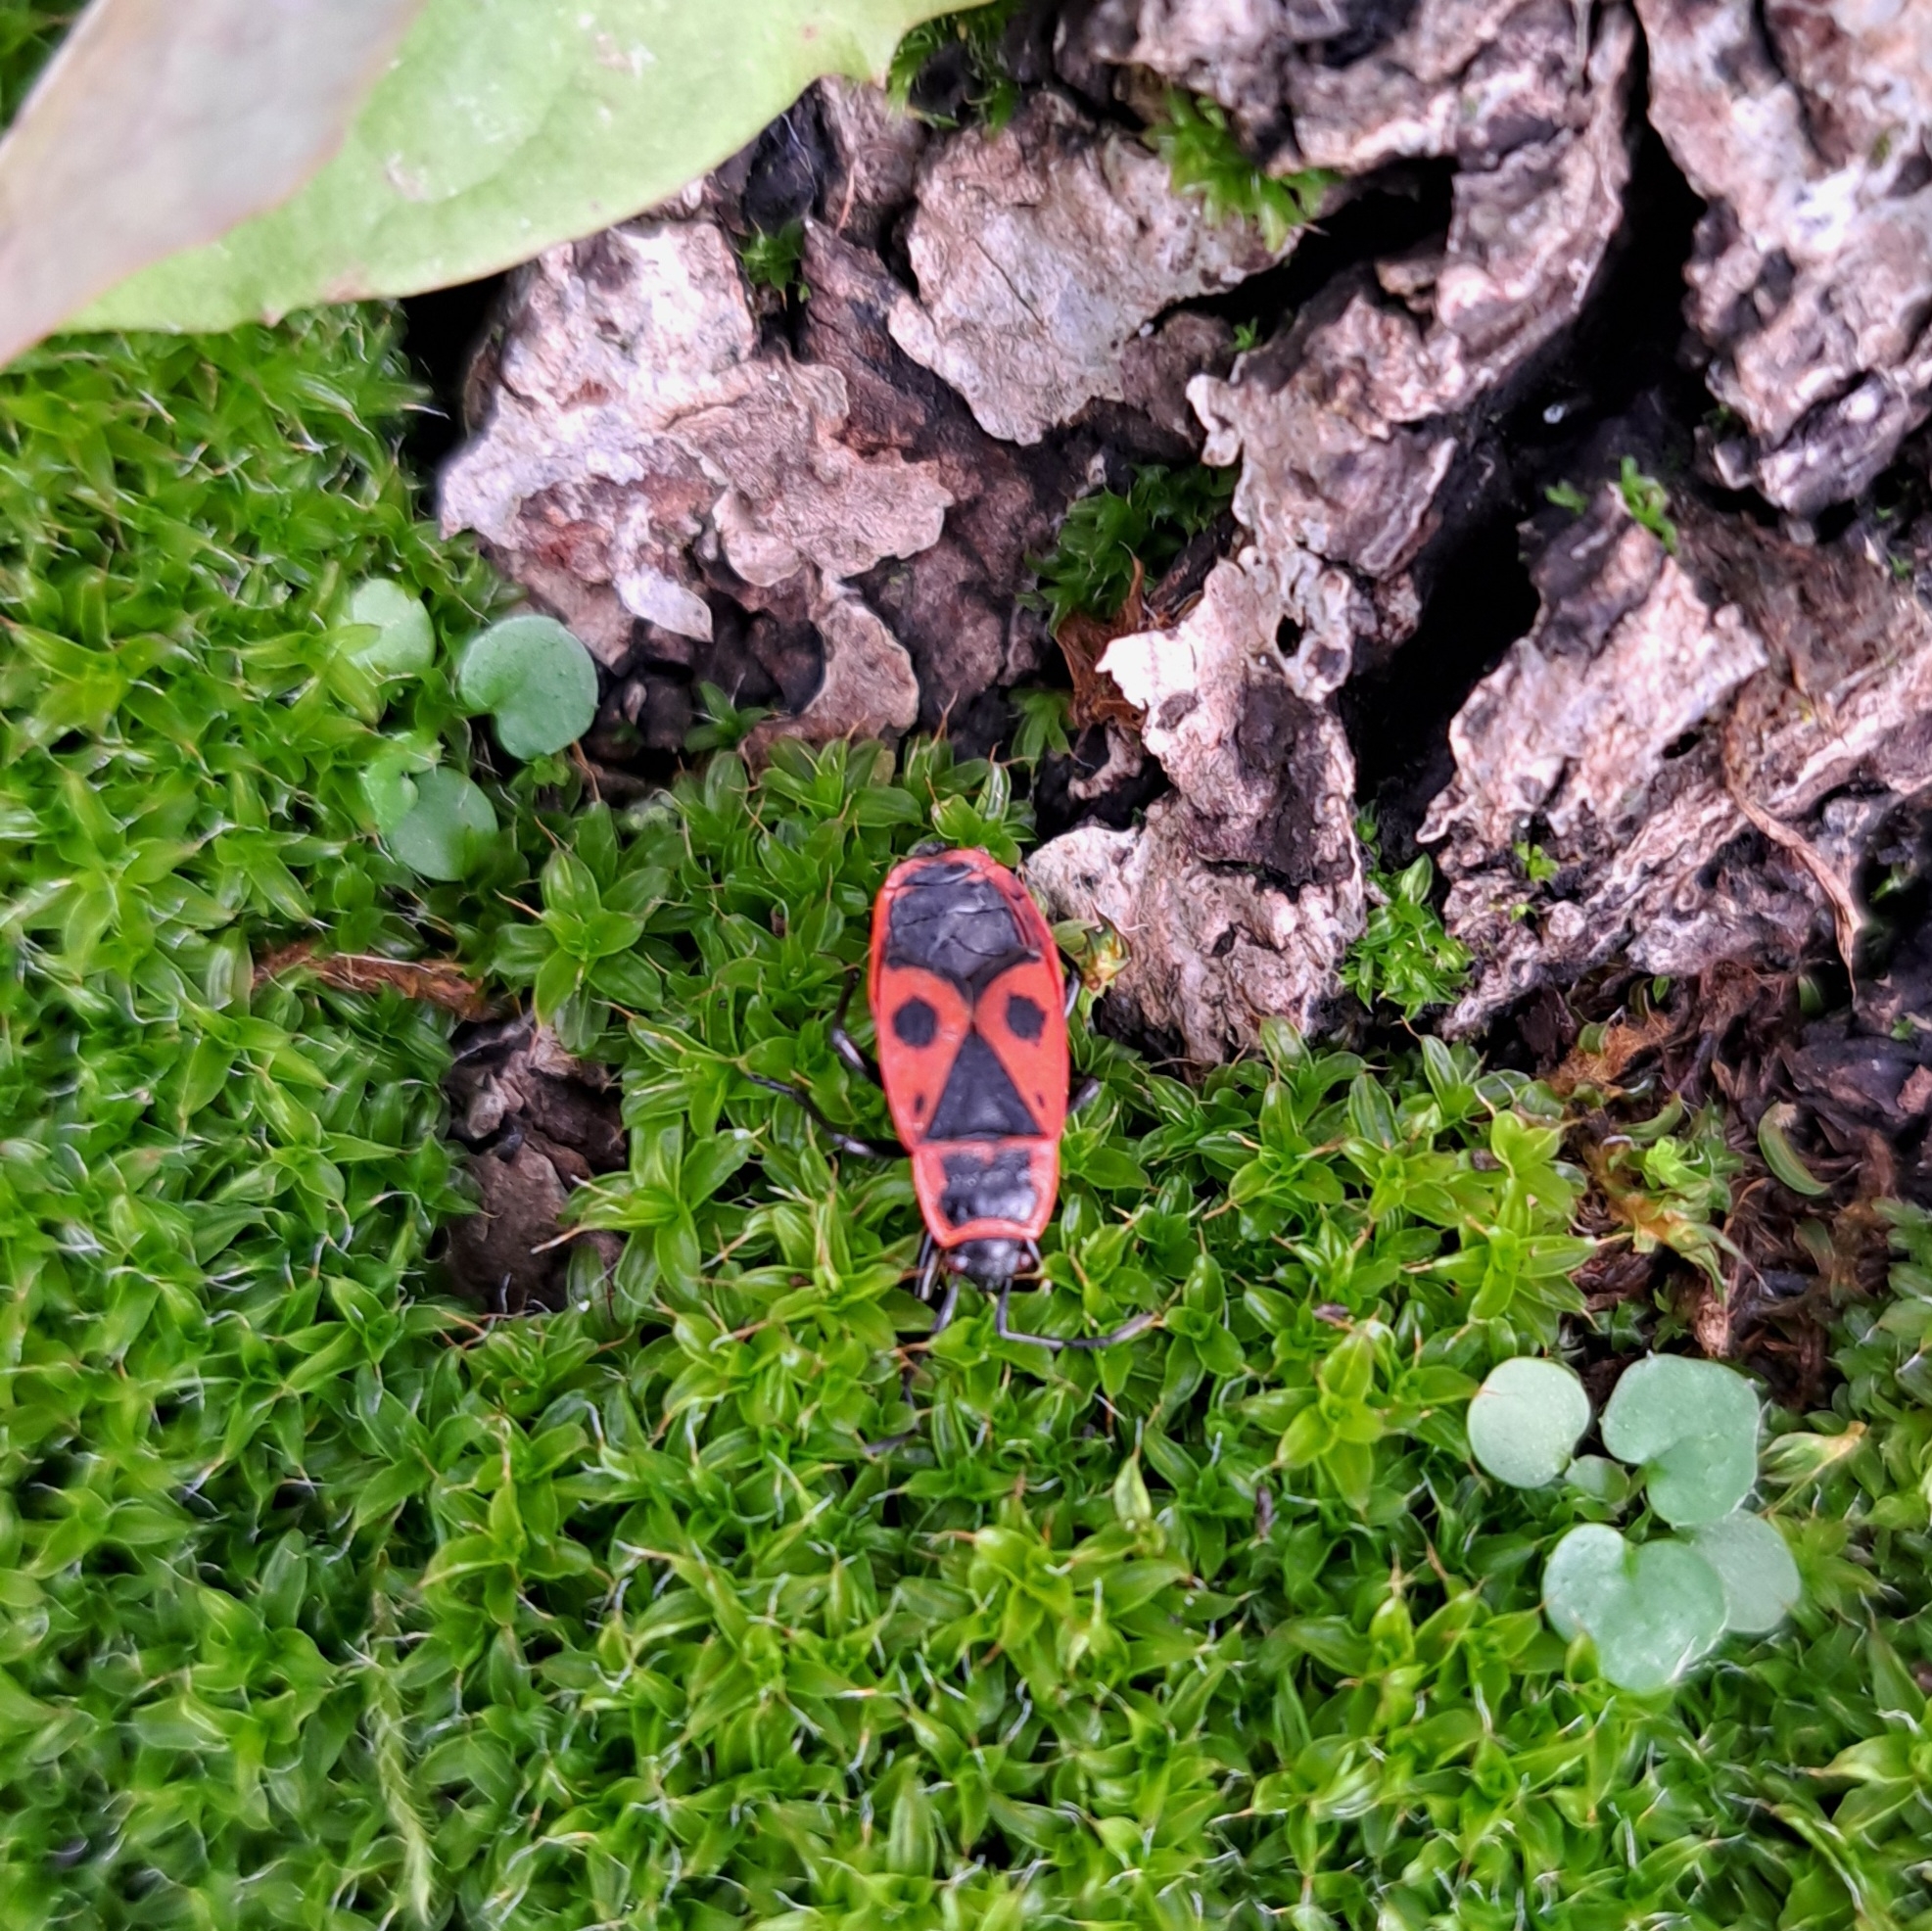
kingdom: Animalia
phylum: Arthropoda
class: Insecta
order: Hemiptera
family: Pyrrhocoridae
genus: Pyrrhocoris
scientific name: Pyrrhocoris apterus
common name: Firebug
